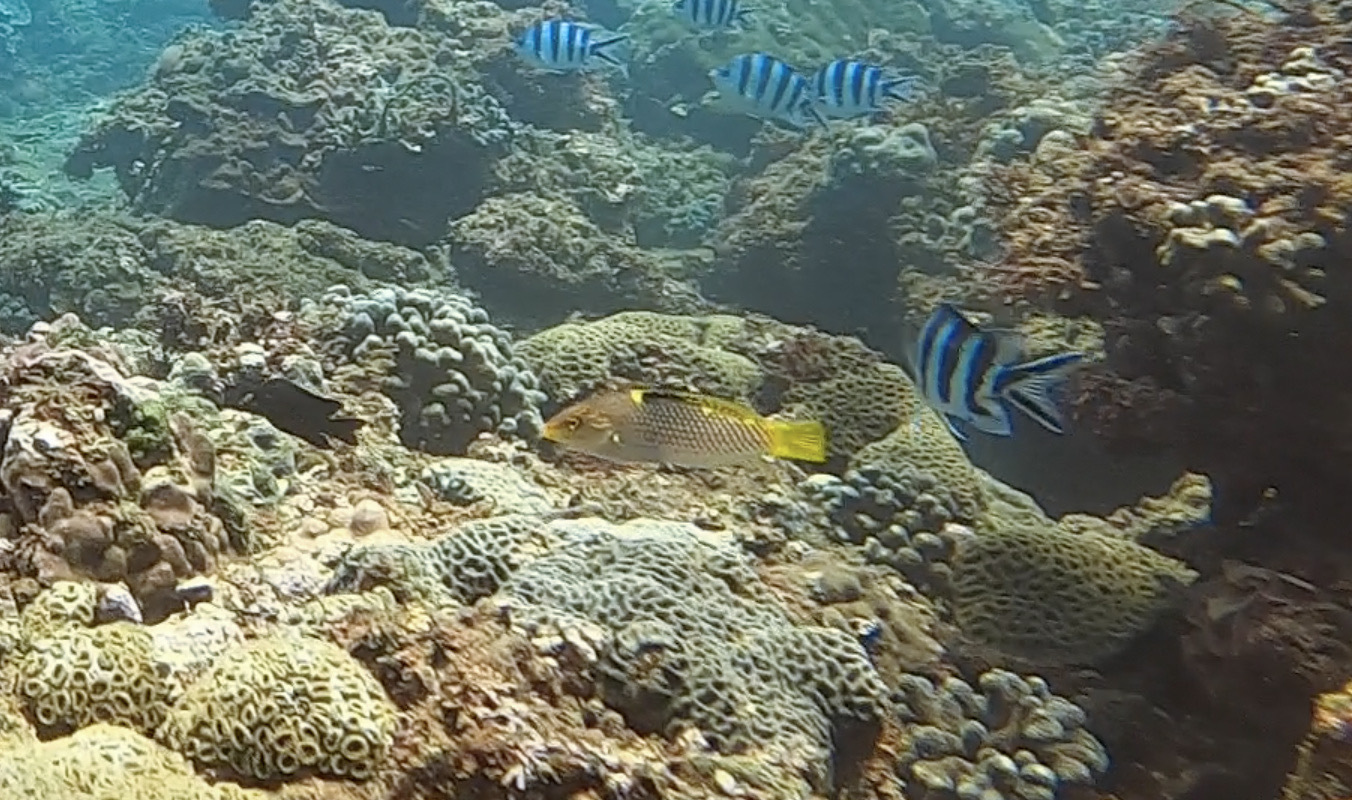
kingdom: Animalia
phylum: Chordata
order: Perciformes
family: Labridae
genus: Halichoeres
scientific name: Halichoeres hortulanus
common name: Checkerboard wrasse
